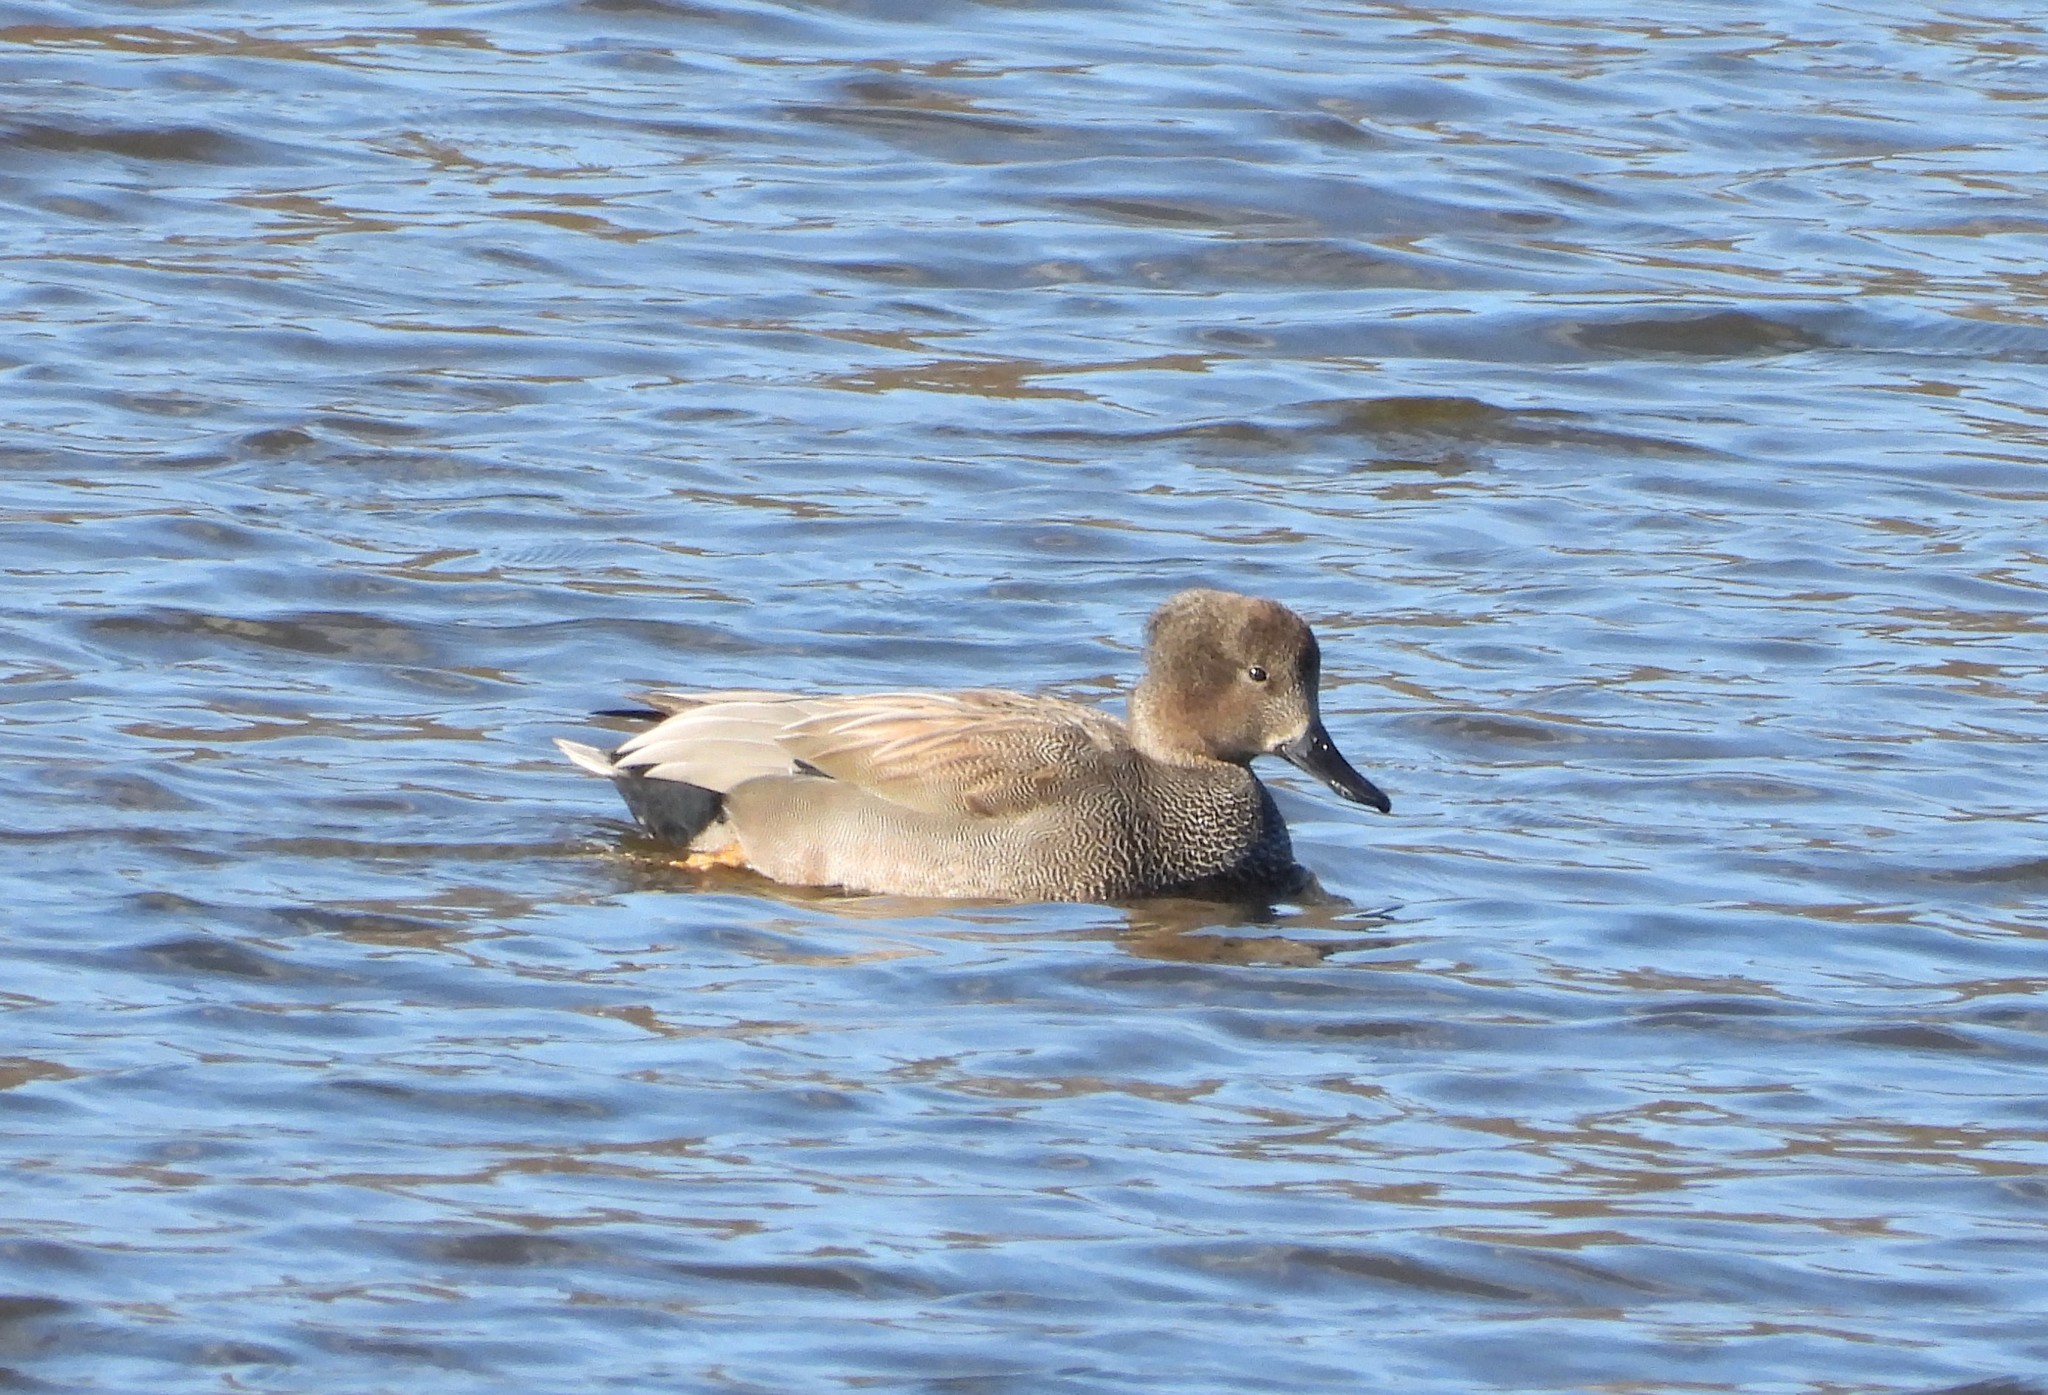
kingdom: Animalia
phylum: Chordata
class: Aves
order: Anseriformes
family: Anatidae
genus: Mareca
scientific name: Mareca strepera
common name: Gadwall
